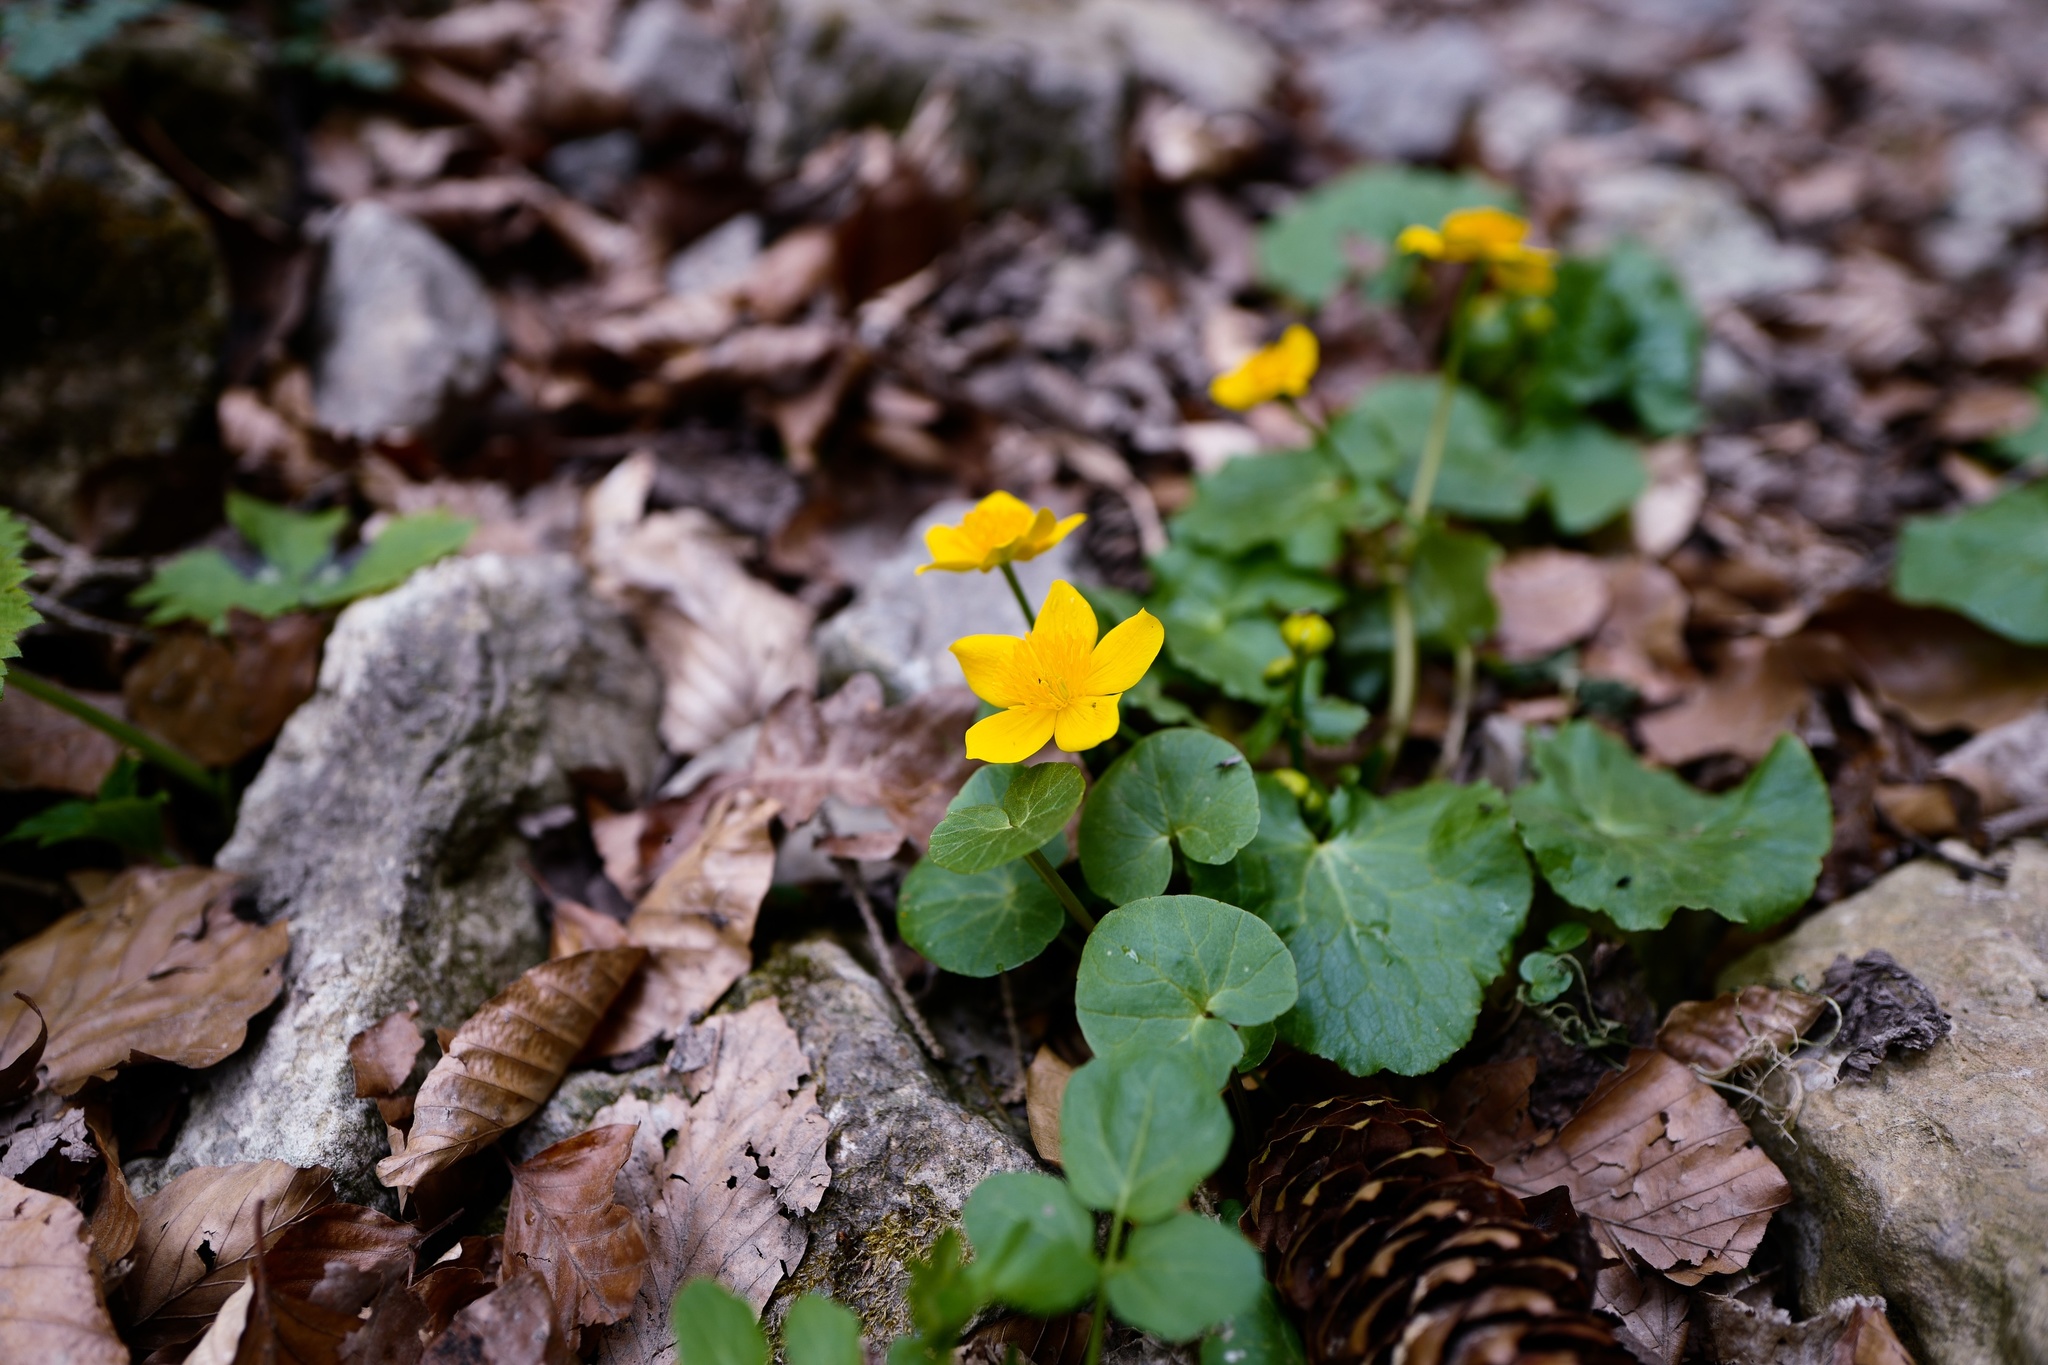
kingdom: Plantae
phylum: Tracheophyta
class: Magnoliopsida
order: Ranunculales
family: Ranunculaceae
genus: Caltha
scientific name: Caltha palustris
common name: Marsh marigold
